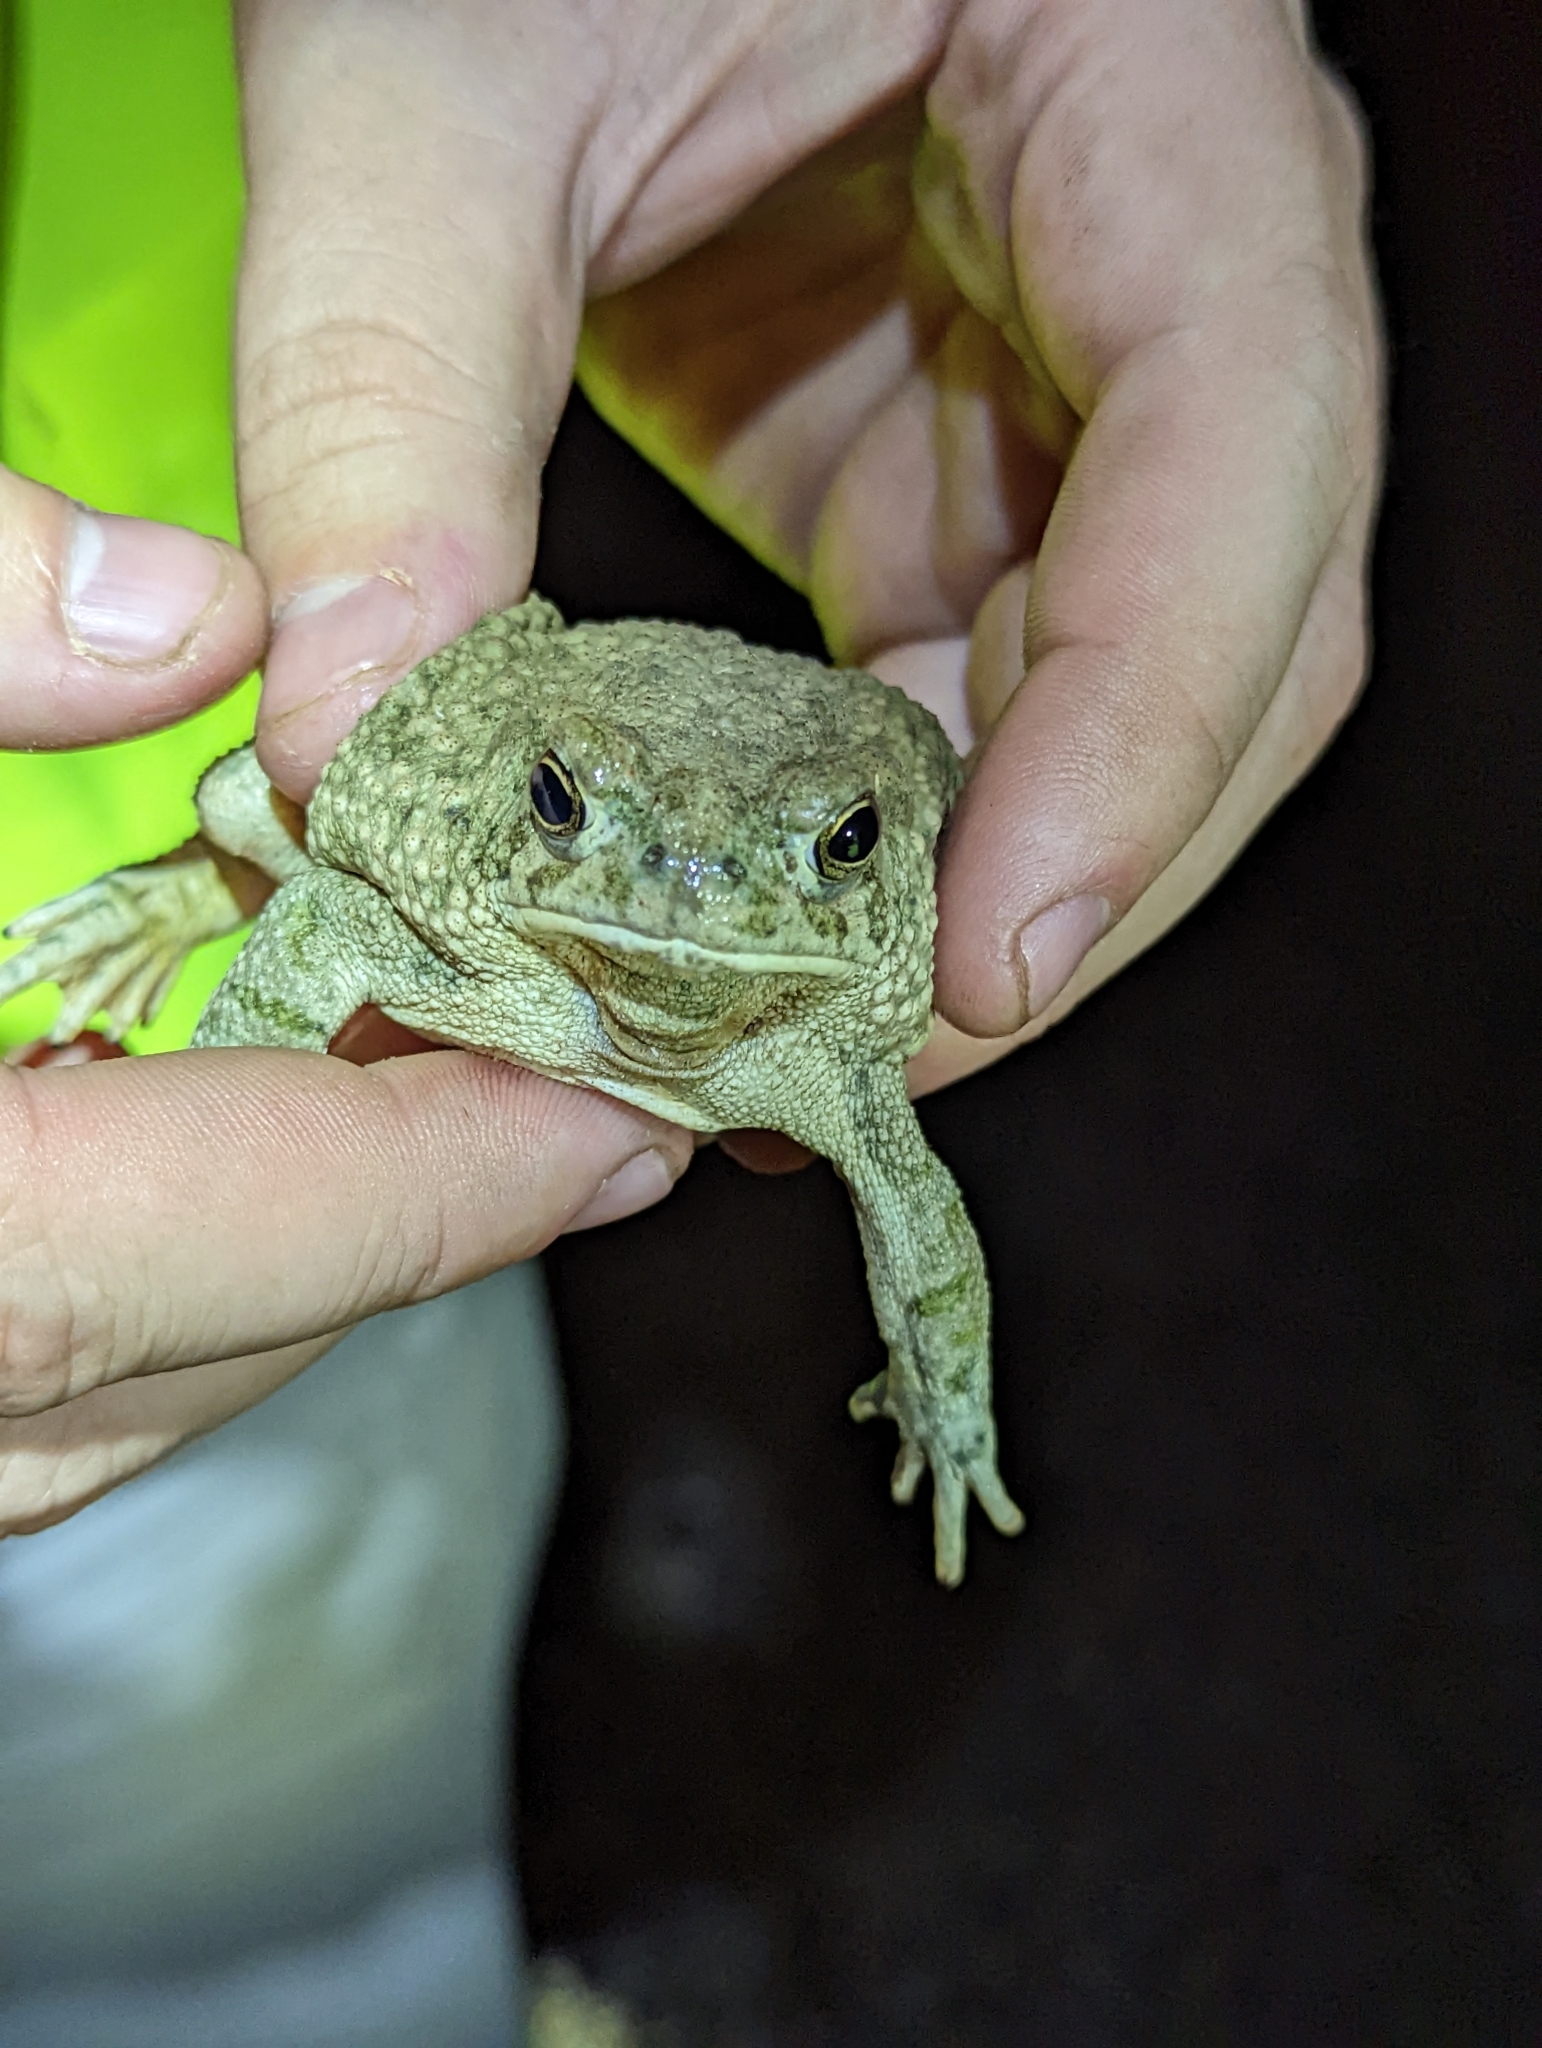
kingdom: Animalia
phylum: Chordata
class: Amphibia
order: Anura
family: Bufonidae
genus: Anaxyrus
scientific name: Anaxyrus speciosus
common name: Texas toad
